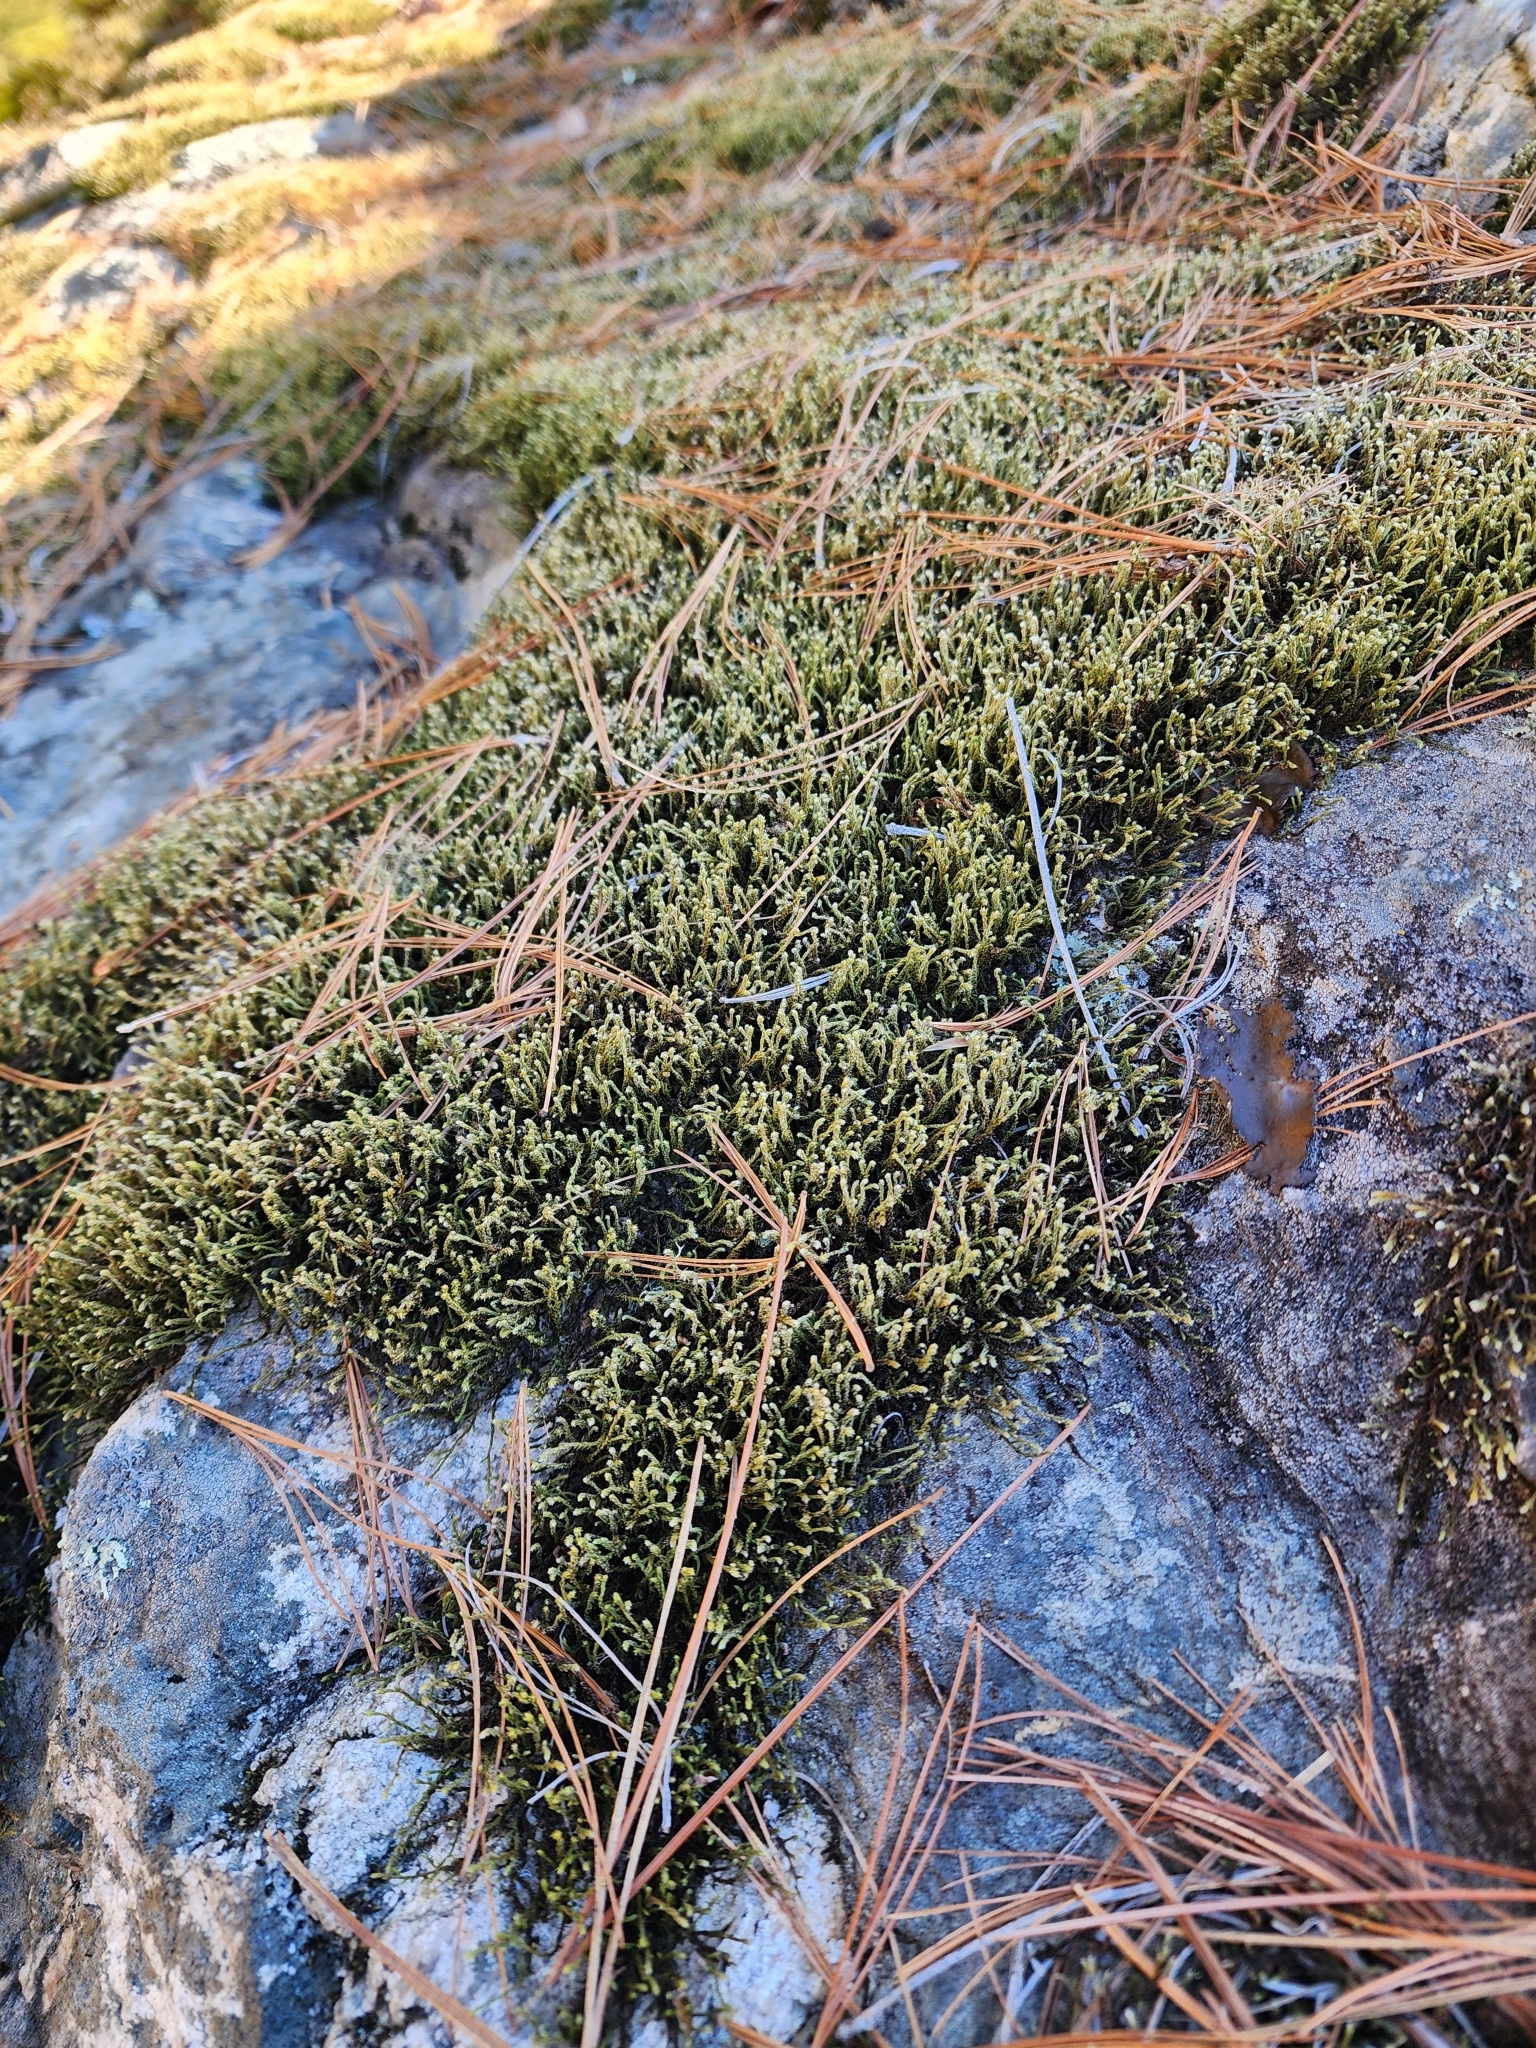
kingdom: Plantae
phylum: Bryophyta
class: Bryopsida
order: Hedwigiales
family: Hedwigiaceae
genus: Hedwigia
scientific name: Hedwigia ciliata
